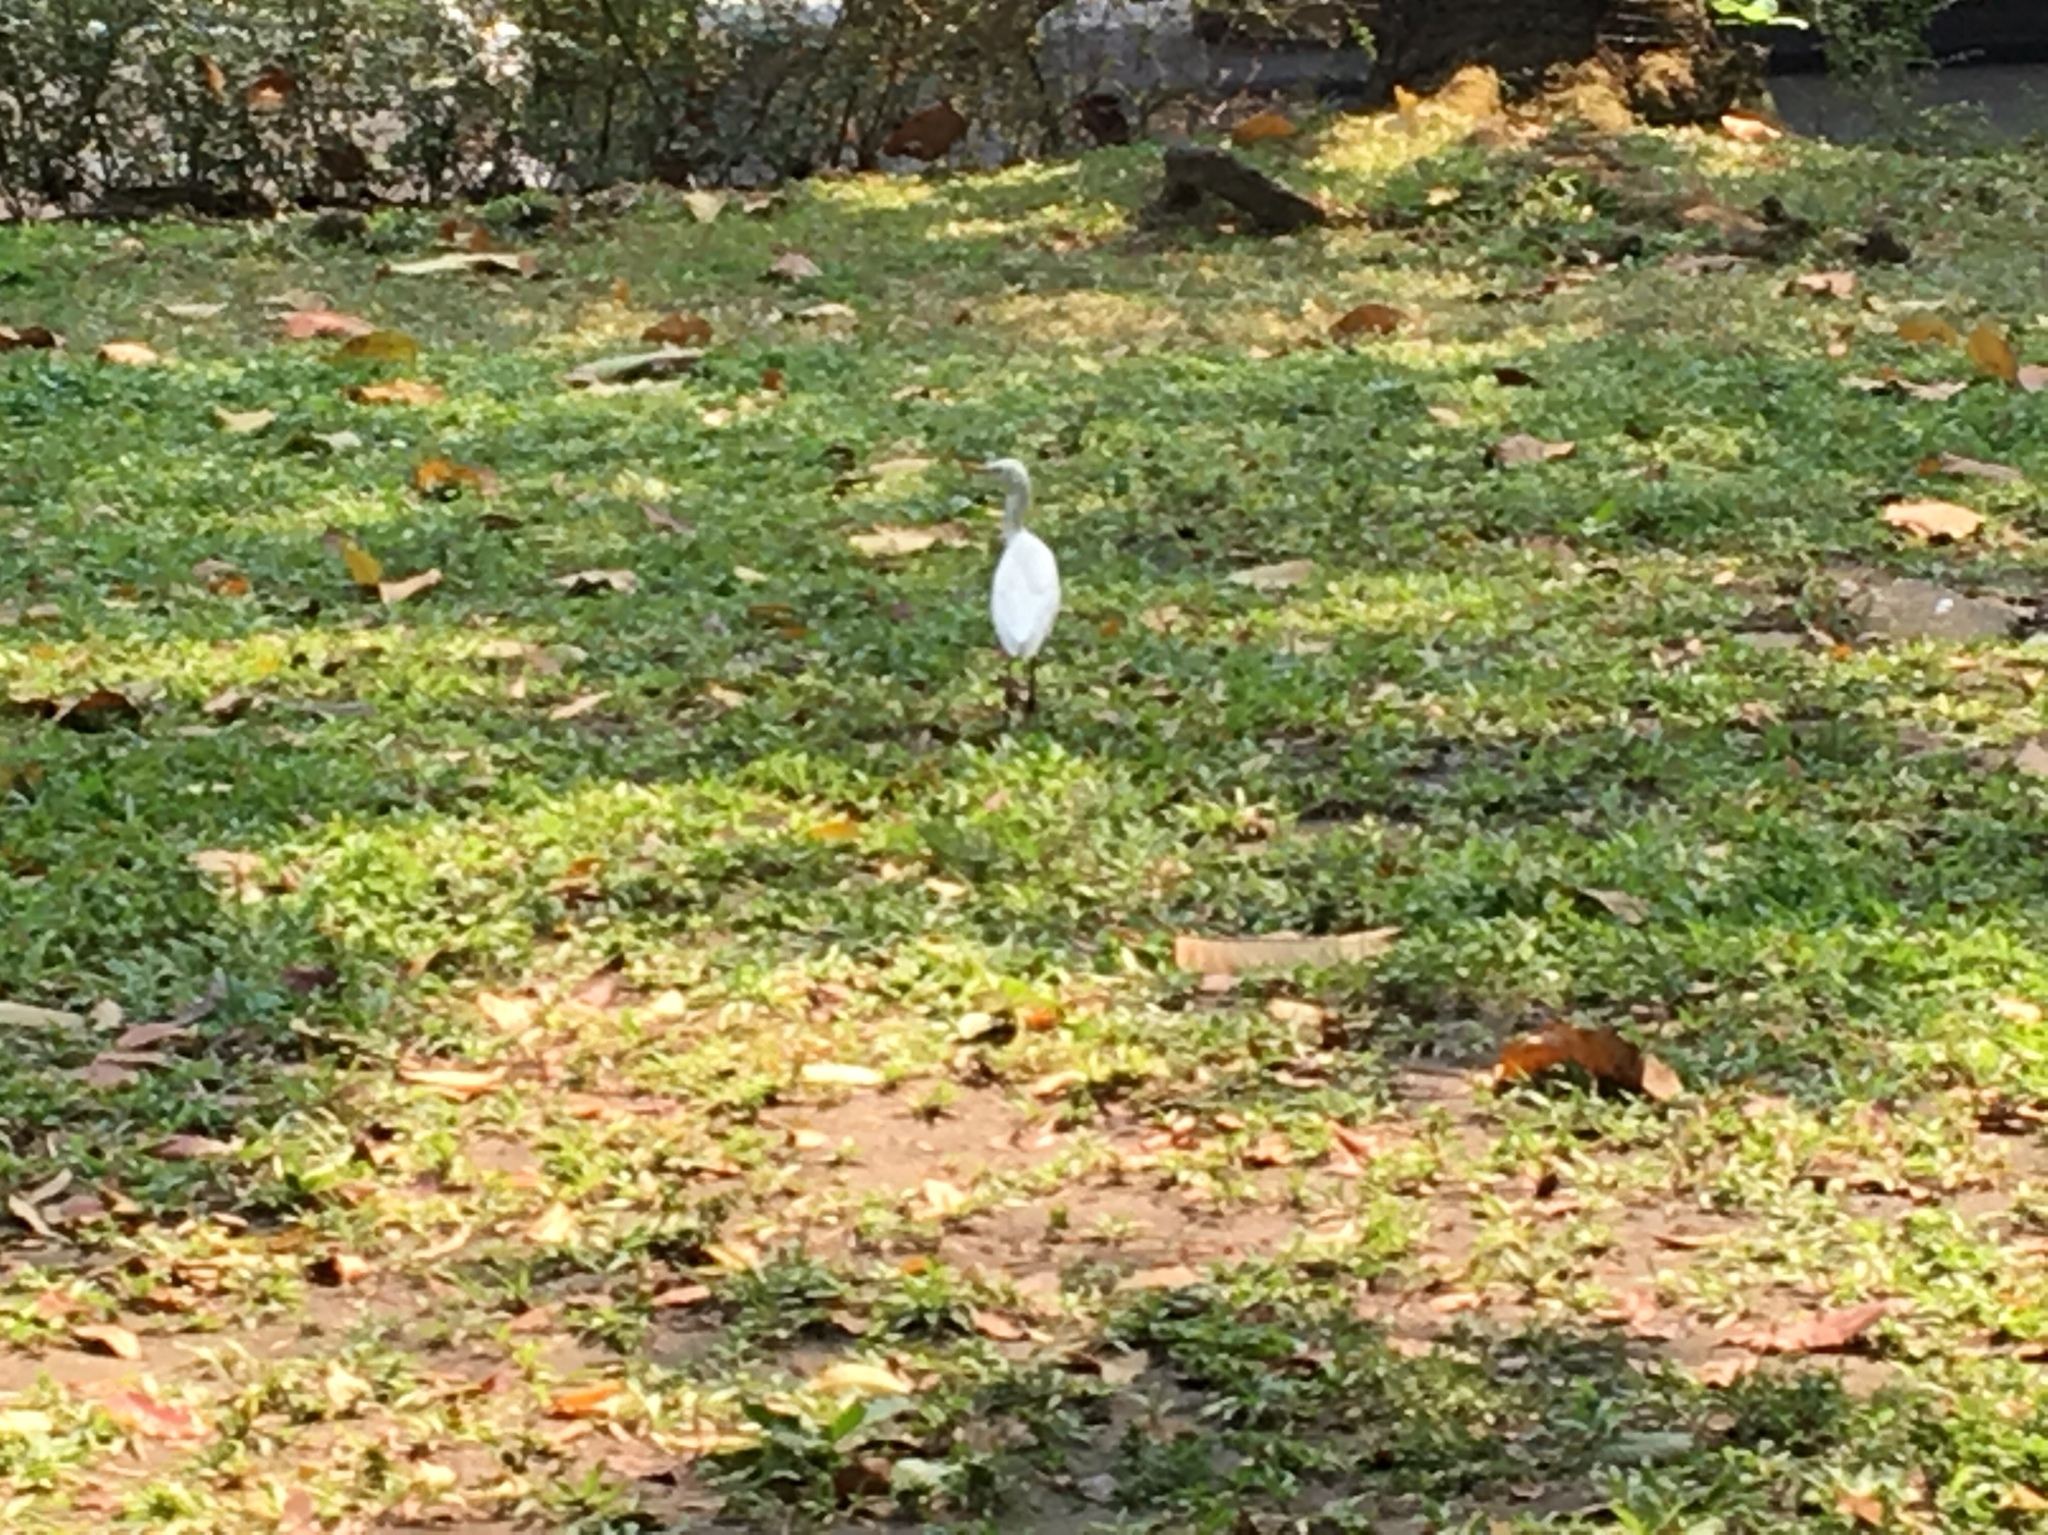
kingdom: Animalia
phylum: Chordata
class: Aves
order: Pelecaniformes
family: Ardeidae
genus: Bubulcus
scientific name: Bubulcus coromandus
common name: Eastern cattle egret
